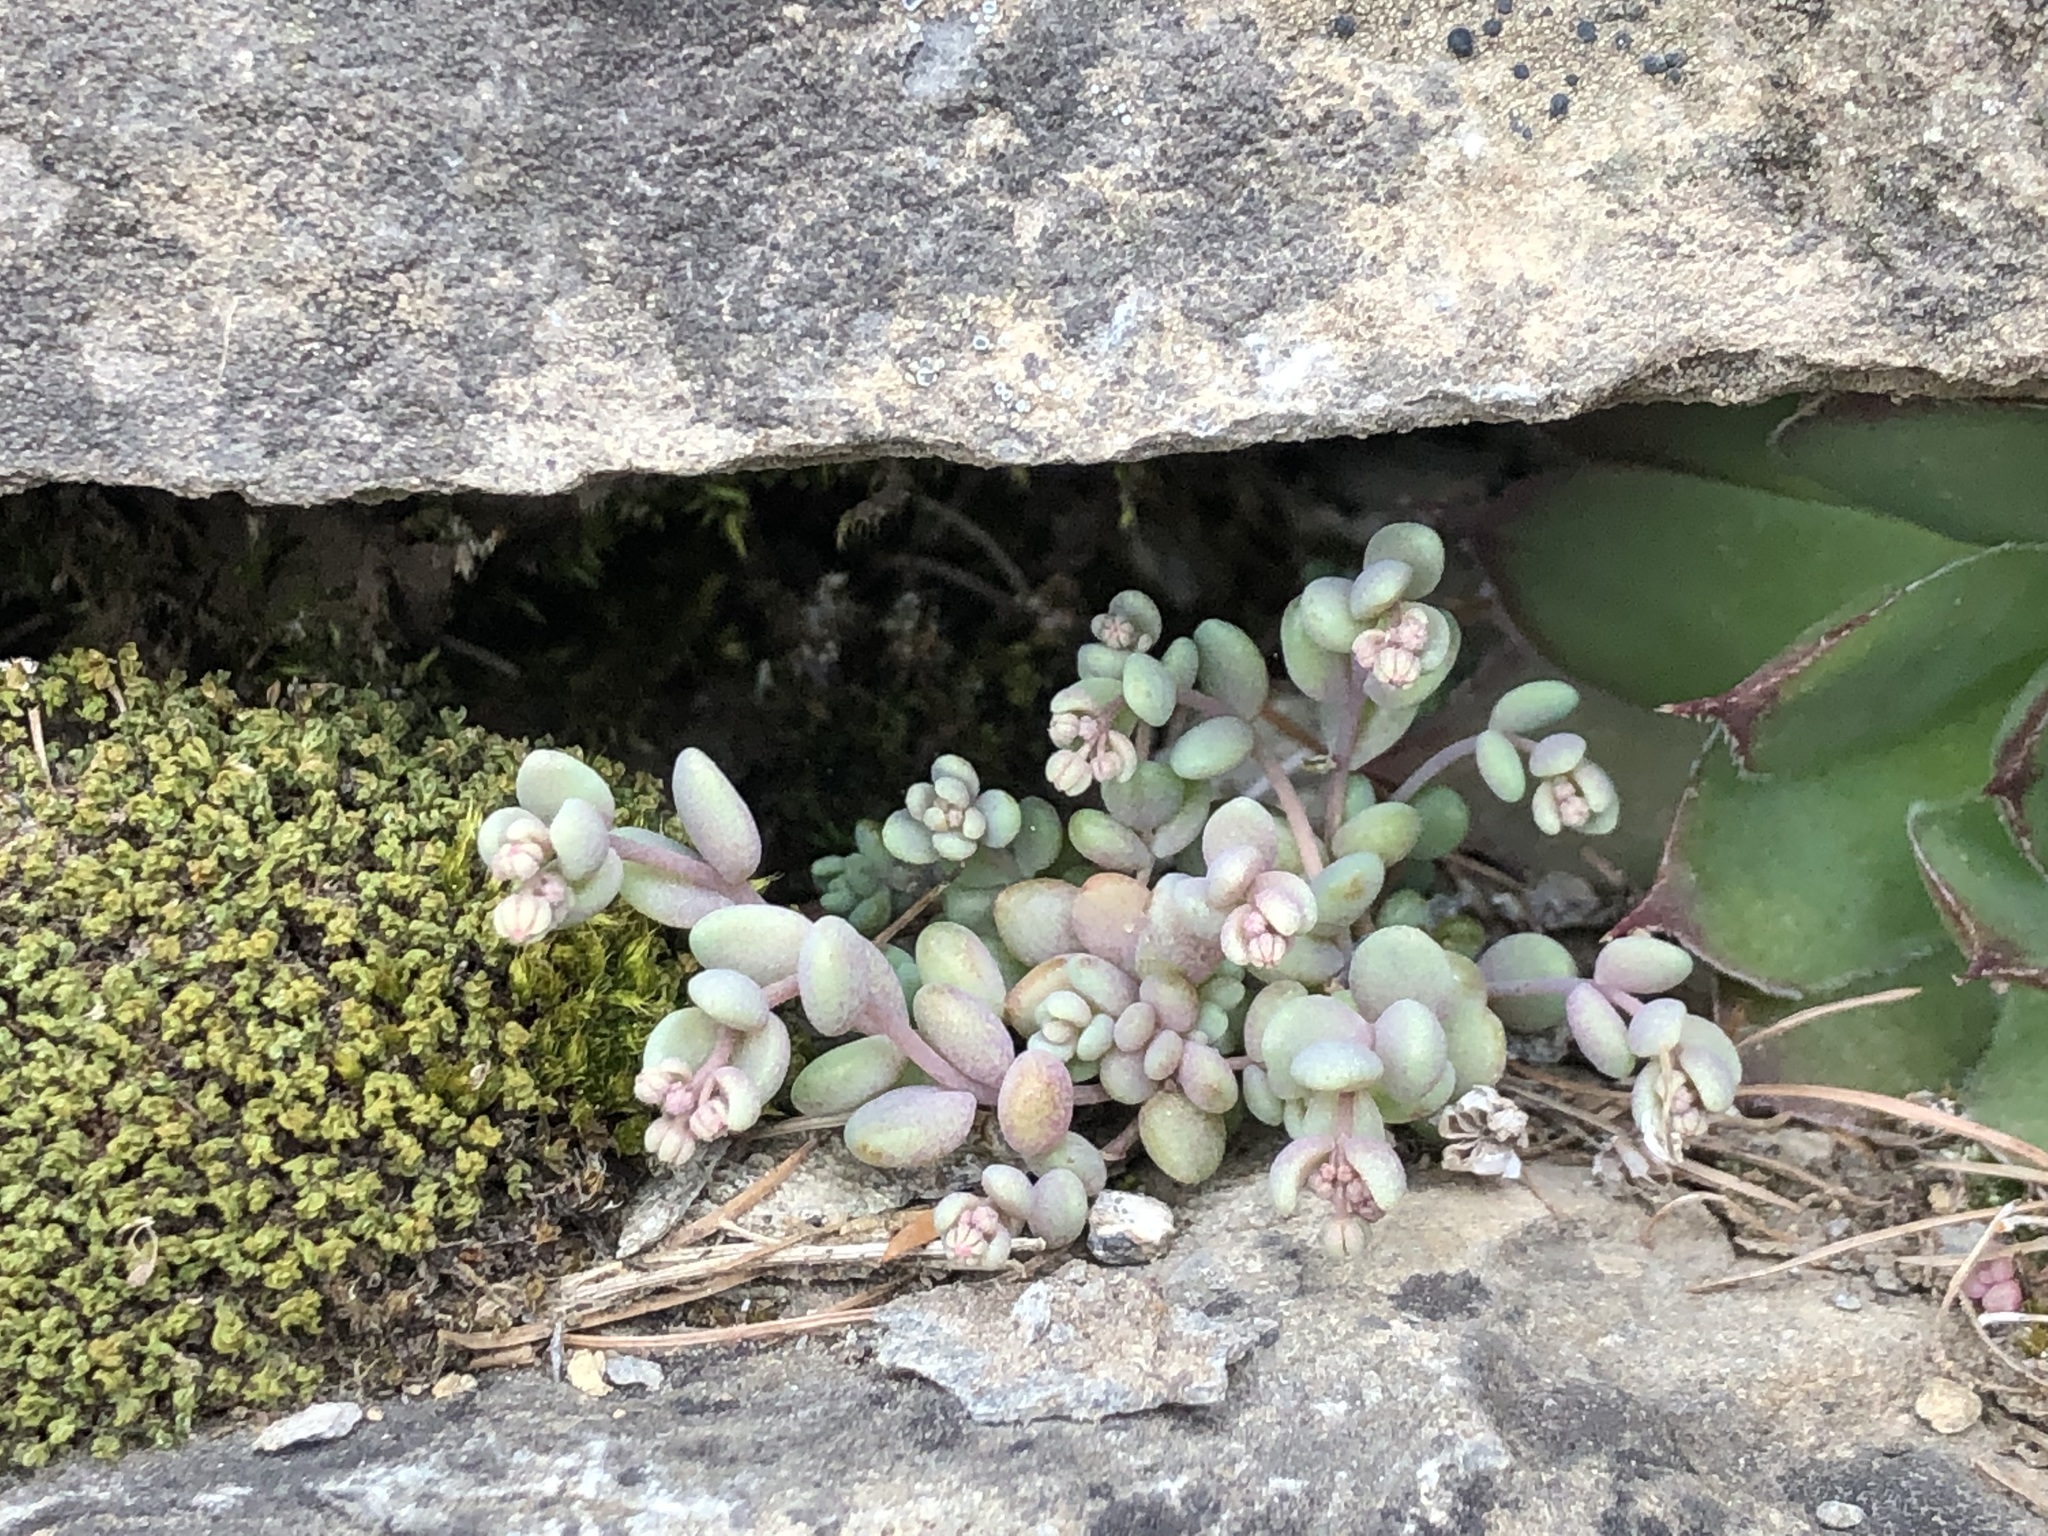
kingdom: Plantae
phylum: Tracheophyta
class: Magnoliopsida
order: Saxifragales
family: Crassulaceae
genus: Sedum
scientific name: Sedum dasyphyllum
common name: Thick-leaf stonecrop
